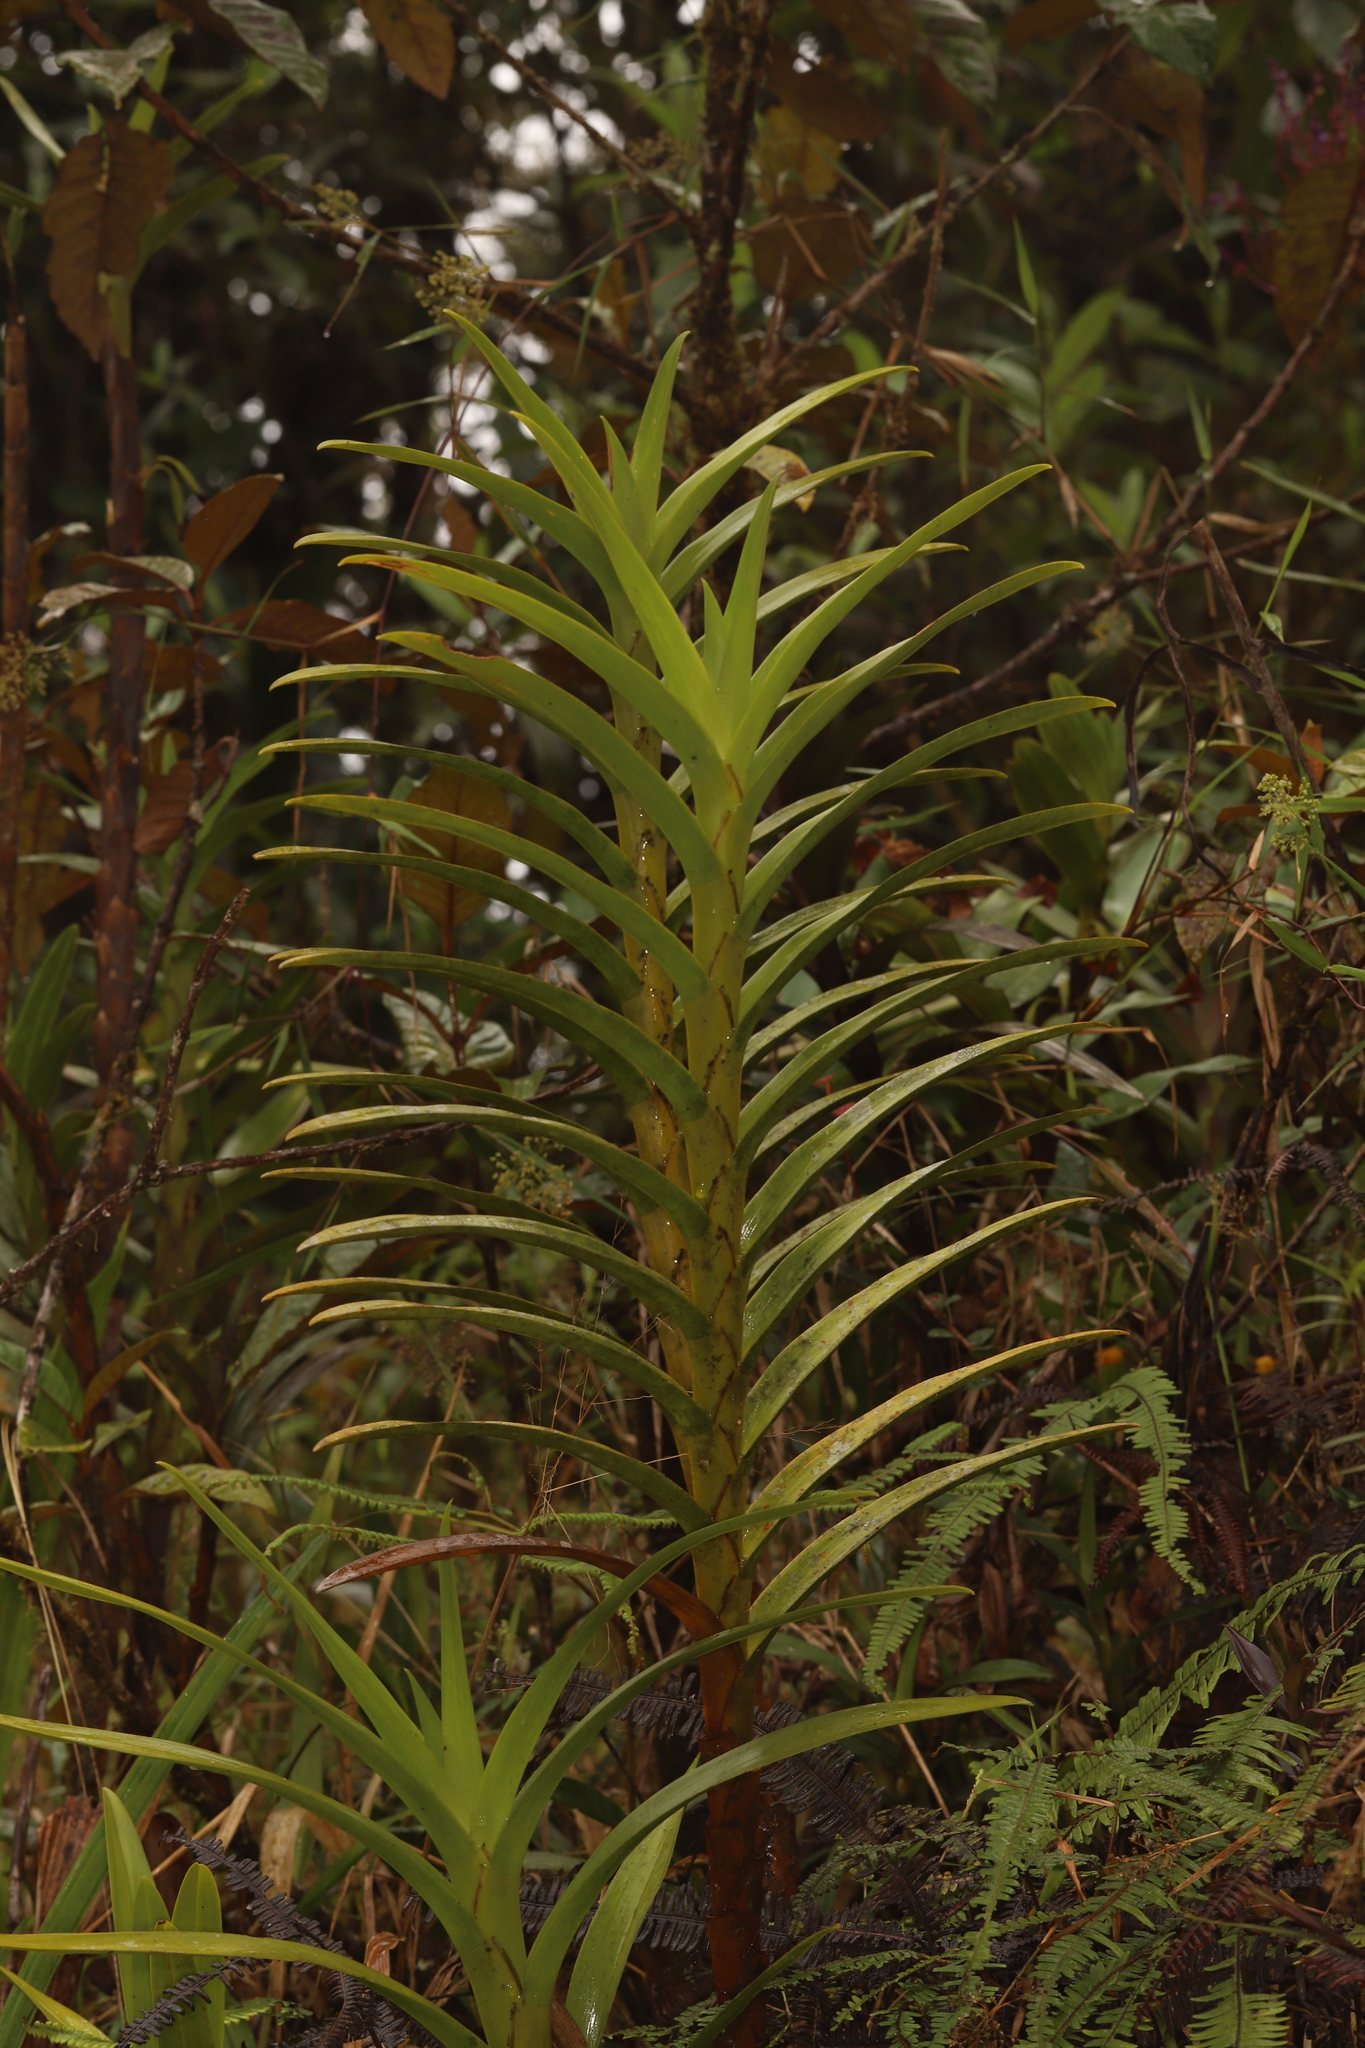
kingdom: Plantae
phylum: Tracheophyta
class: Liliopsida
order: Asparagales
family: Orchidaceae
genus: Maxillaria
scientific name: Maxillaria aurea
